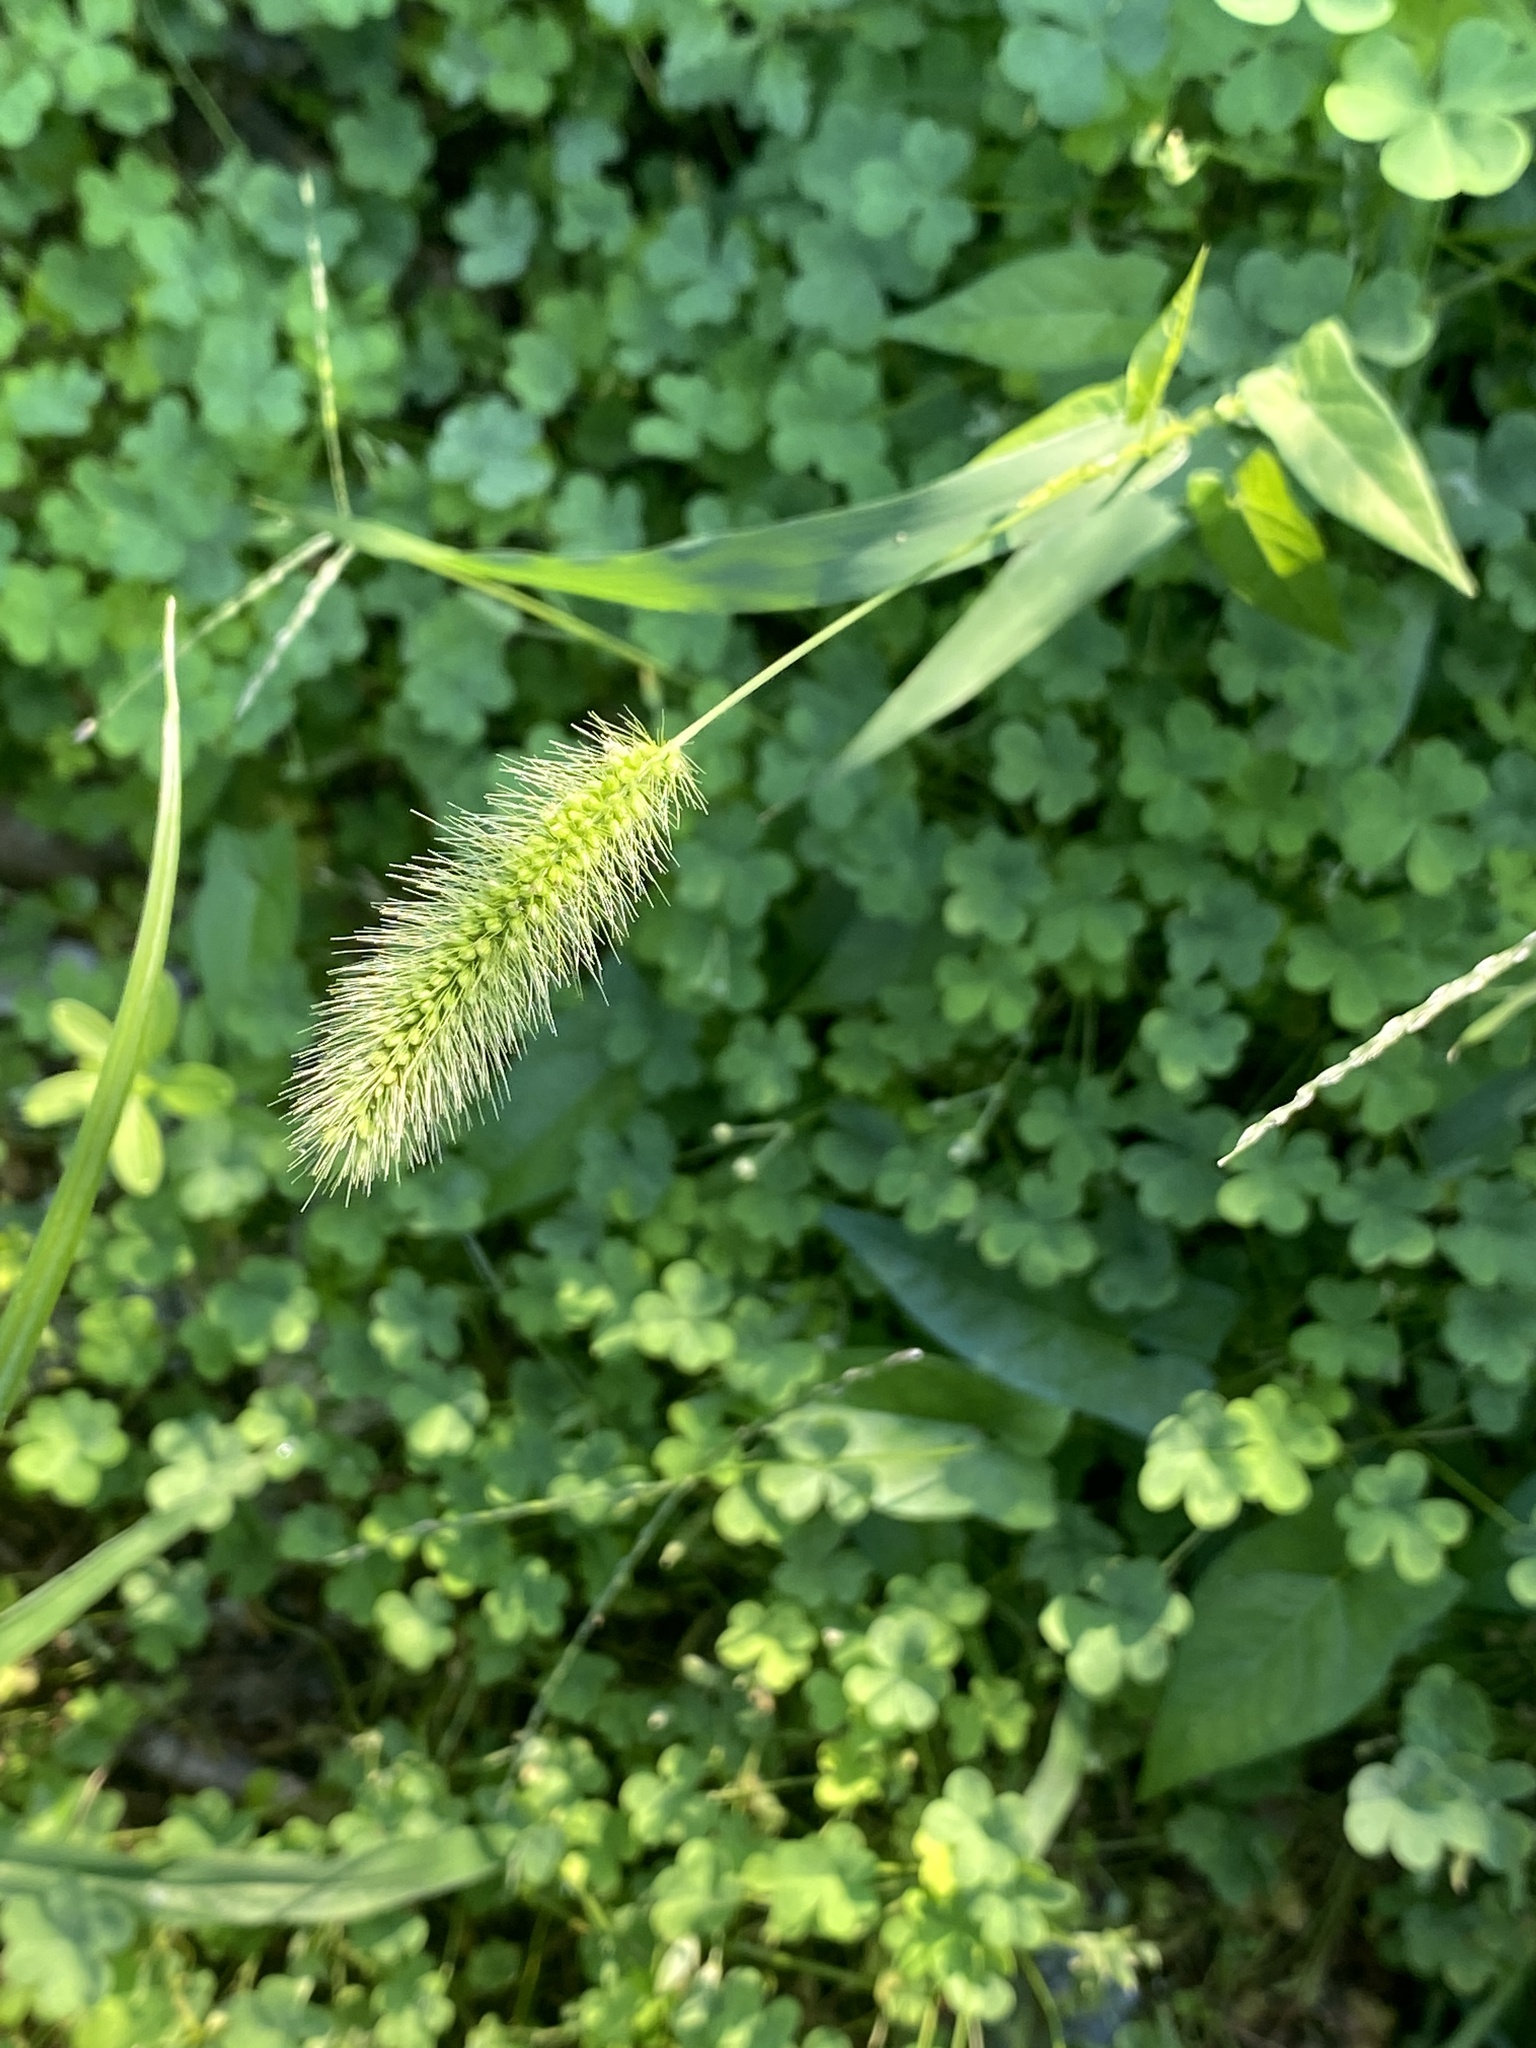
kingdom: Plantae
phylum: Tracheophyta
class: Liliopsida
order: Poales
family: Poaceae
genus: Setaria
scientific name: Setaria viridis
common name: Green bristlegrass
